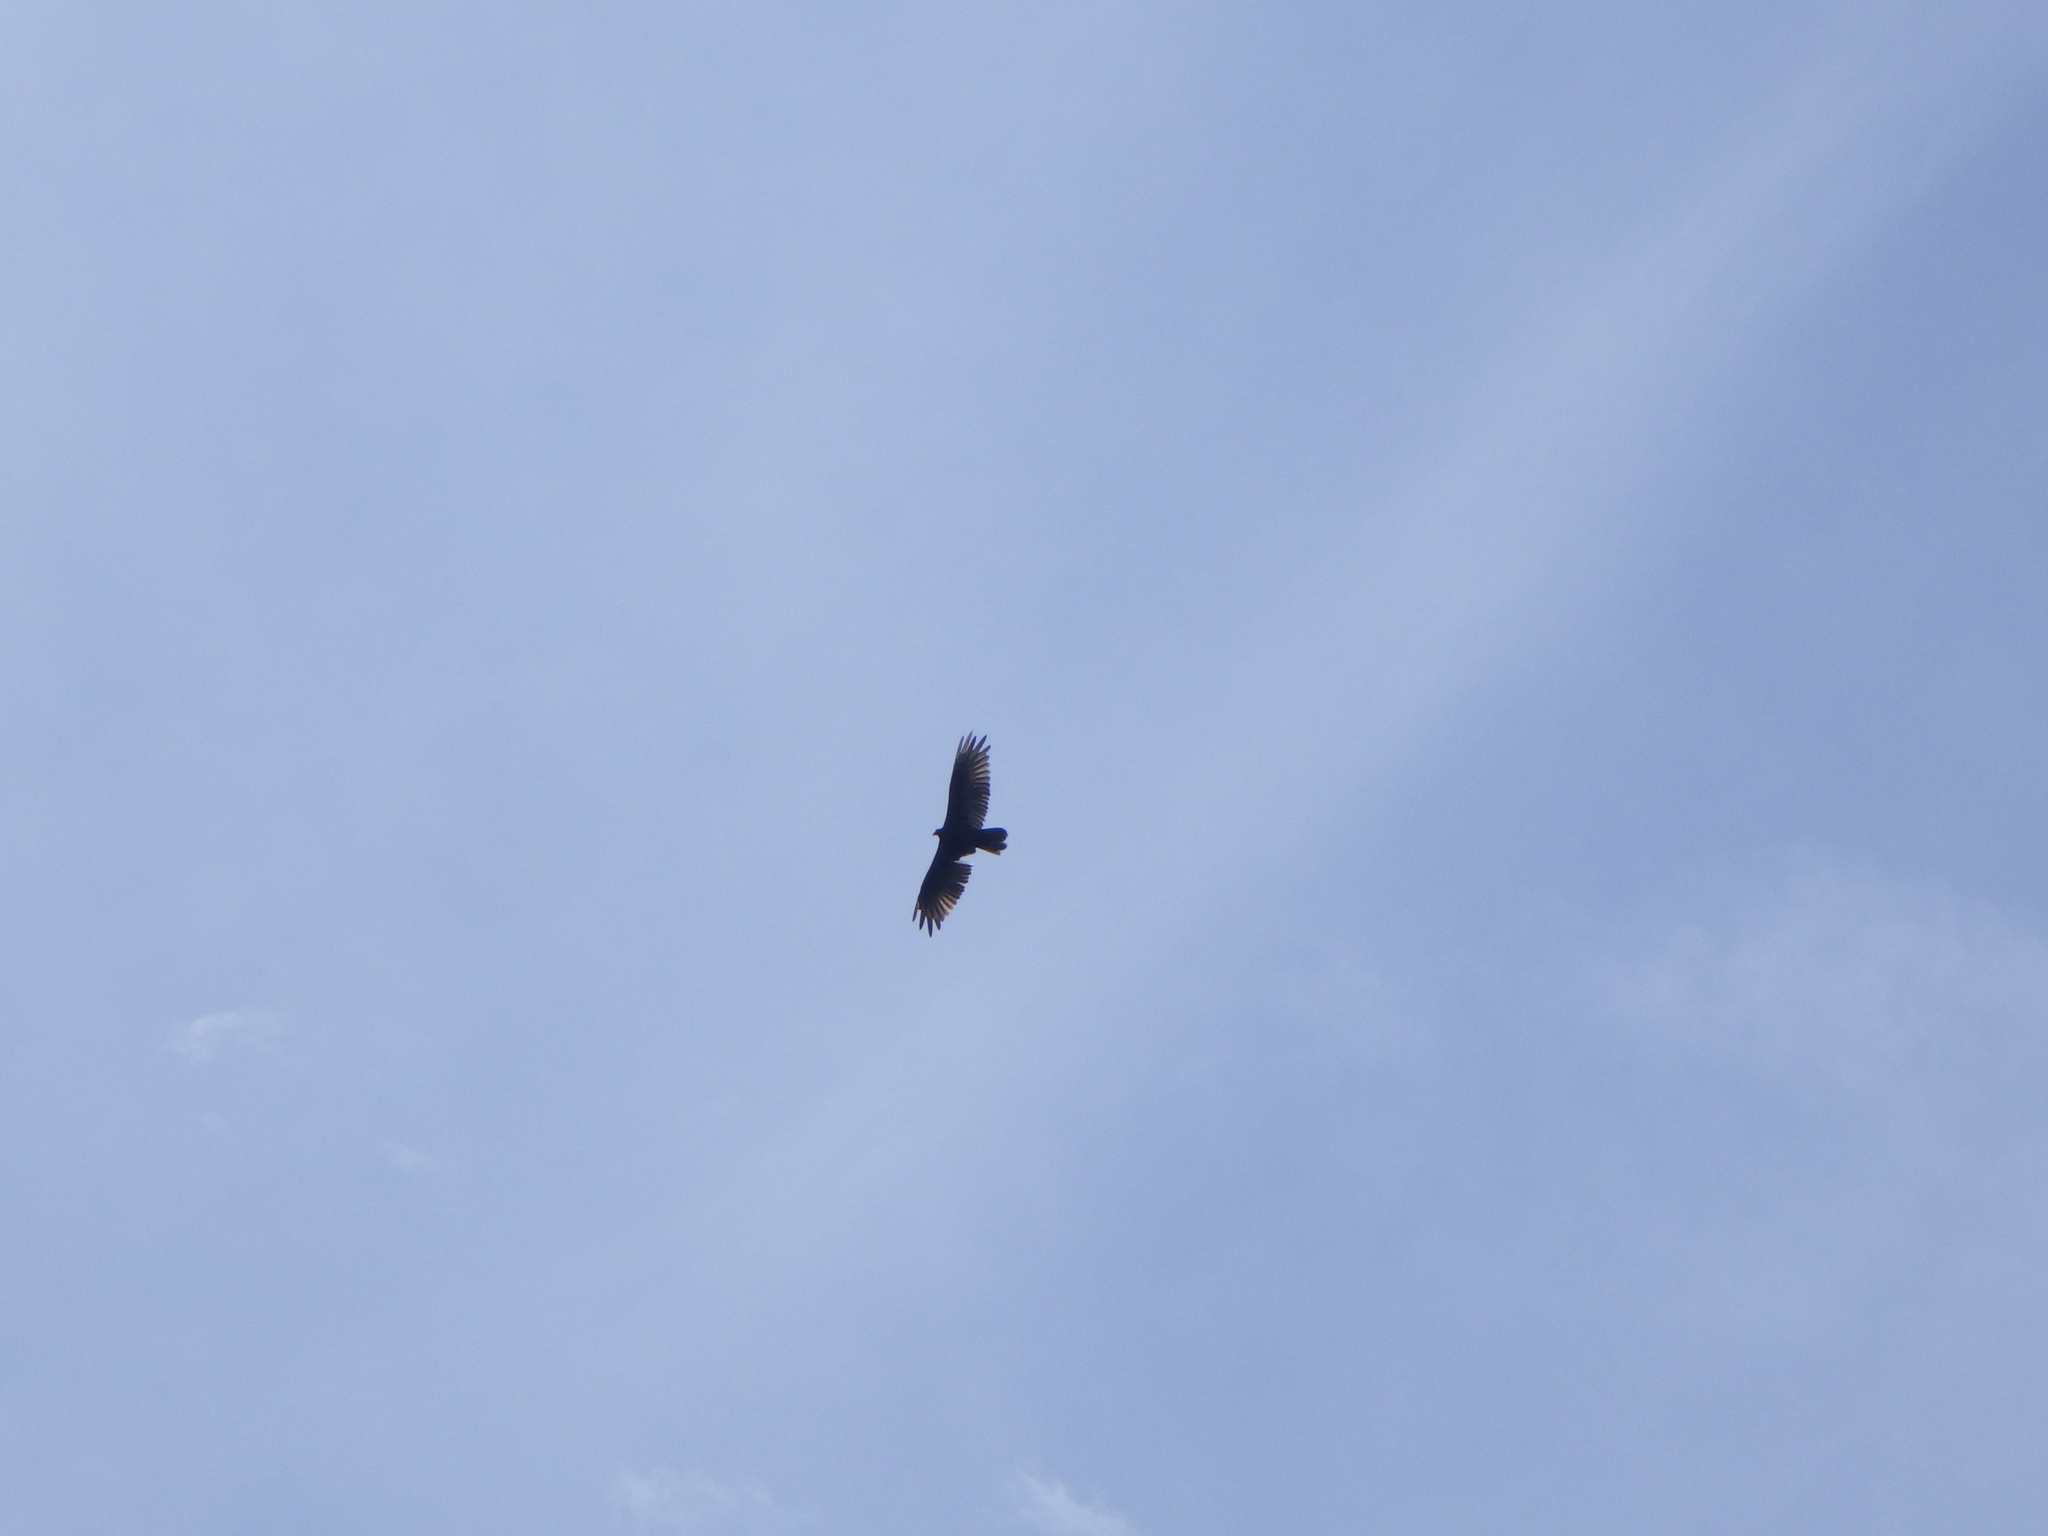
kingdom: Animalia
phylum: Chordata
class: Aves
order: Accipitriformes
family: Cathartidae
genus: Cathartes
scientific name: Cathartes aura
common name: Turkey vulture
